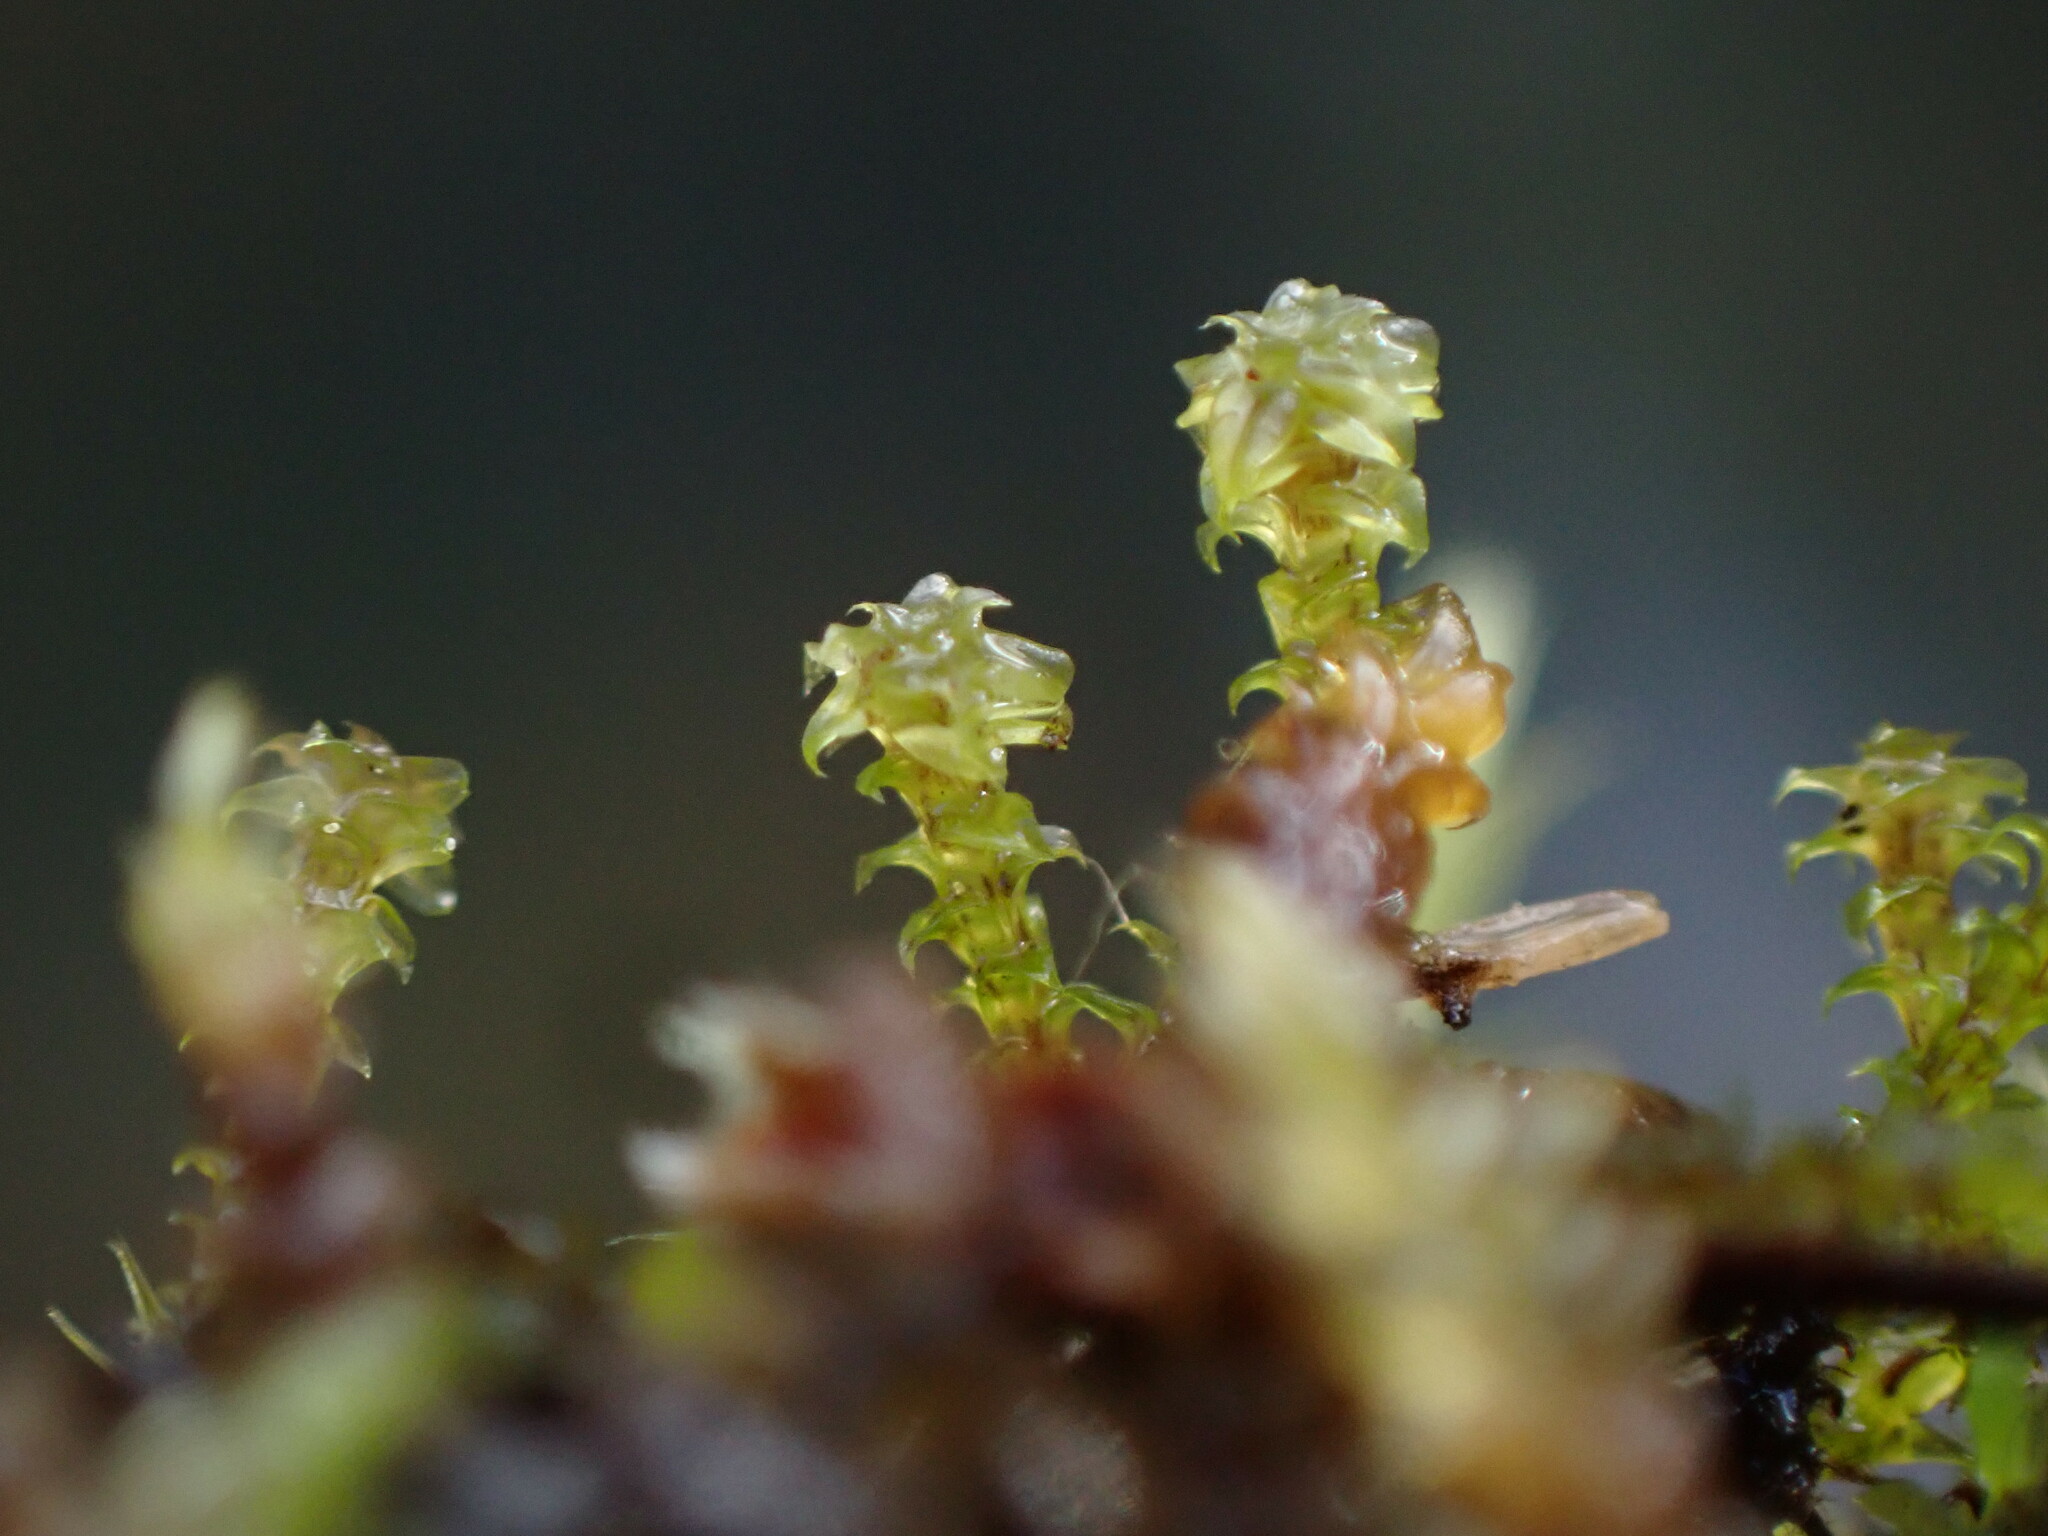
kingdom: Plantae
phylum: Bryophyta
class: Bryopsida
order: Splachnales
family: Meesiaceae
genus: Paludella
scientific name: Paludella squarrosa
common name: Tufted fen moss
